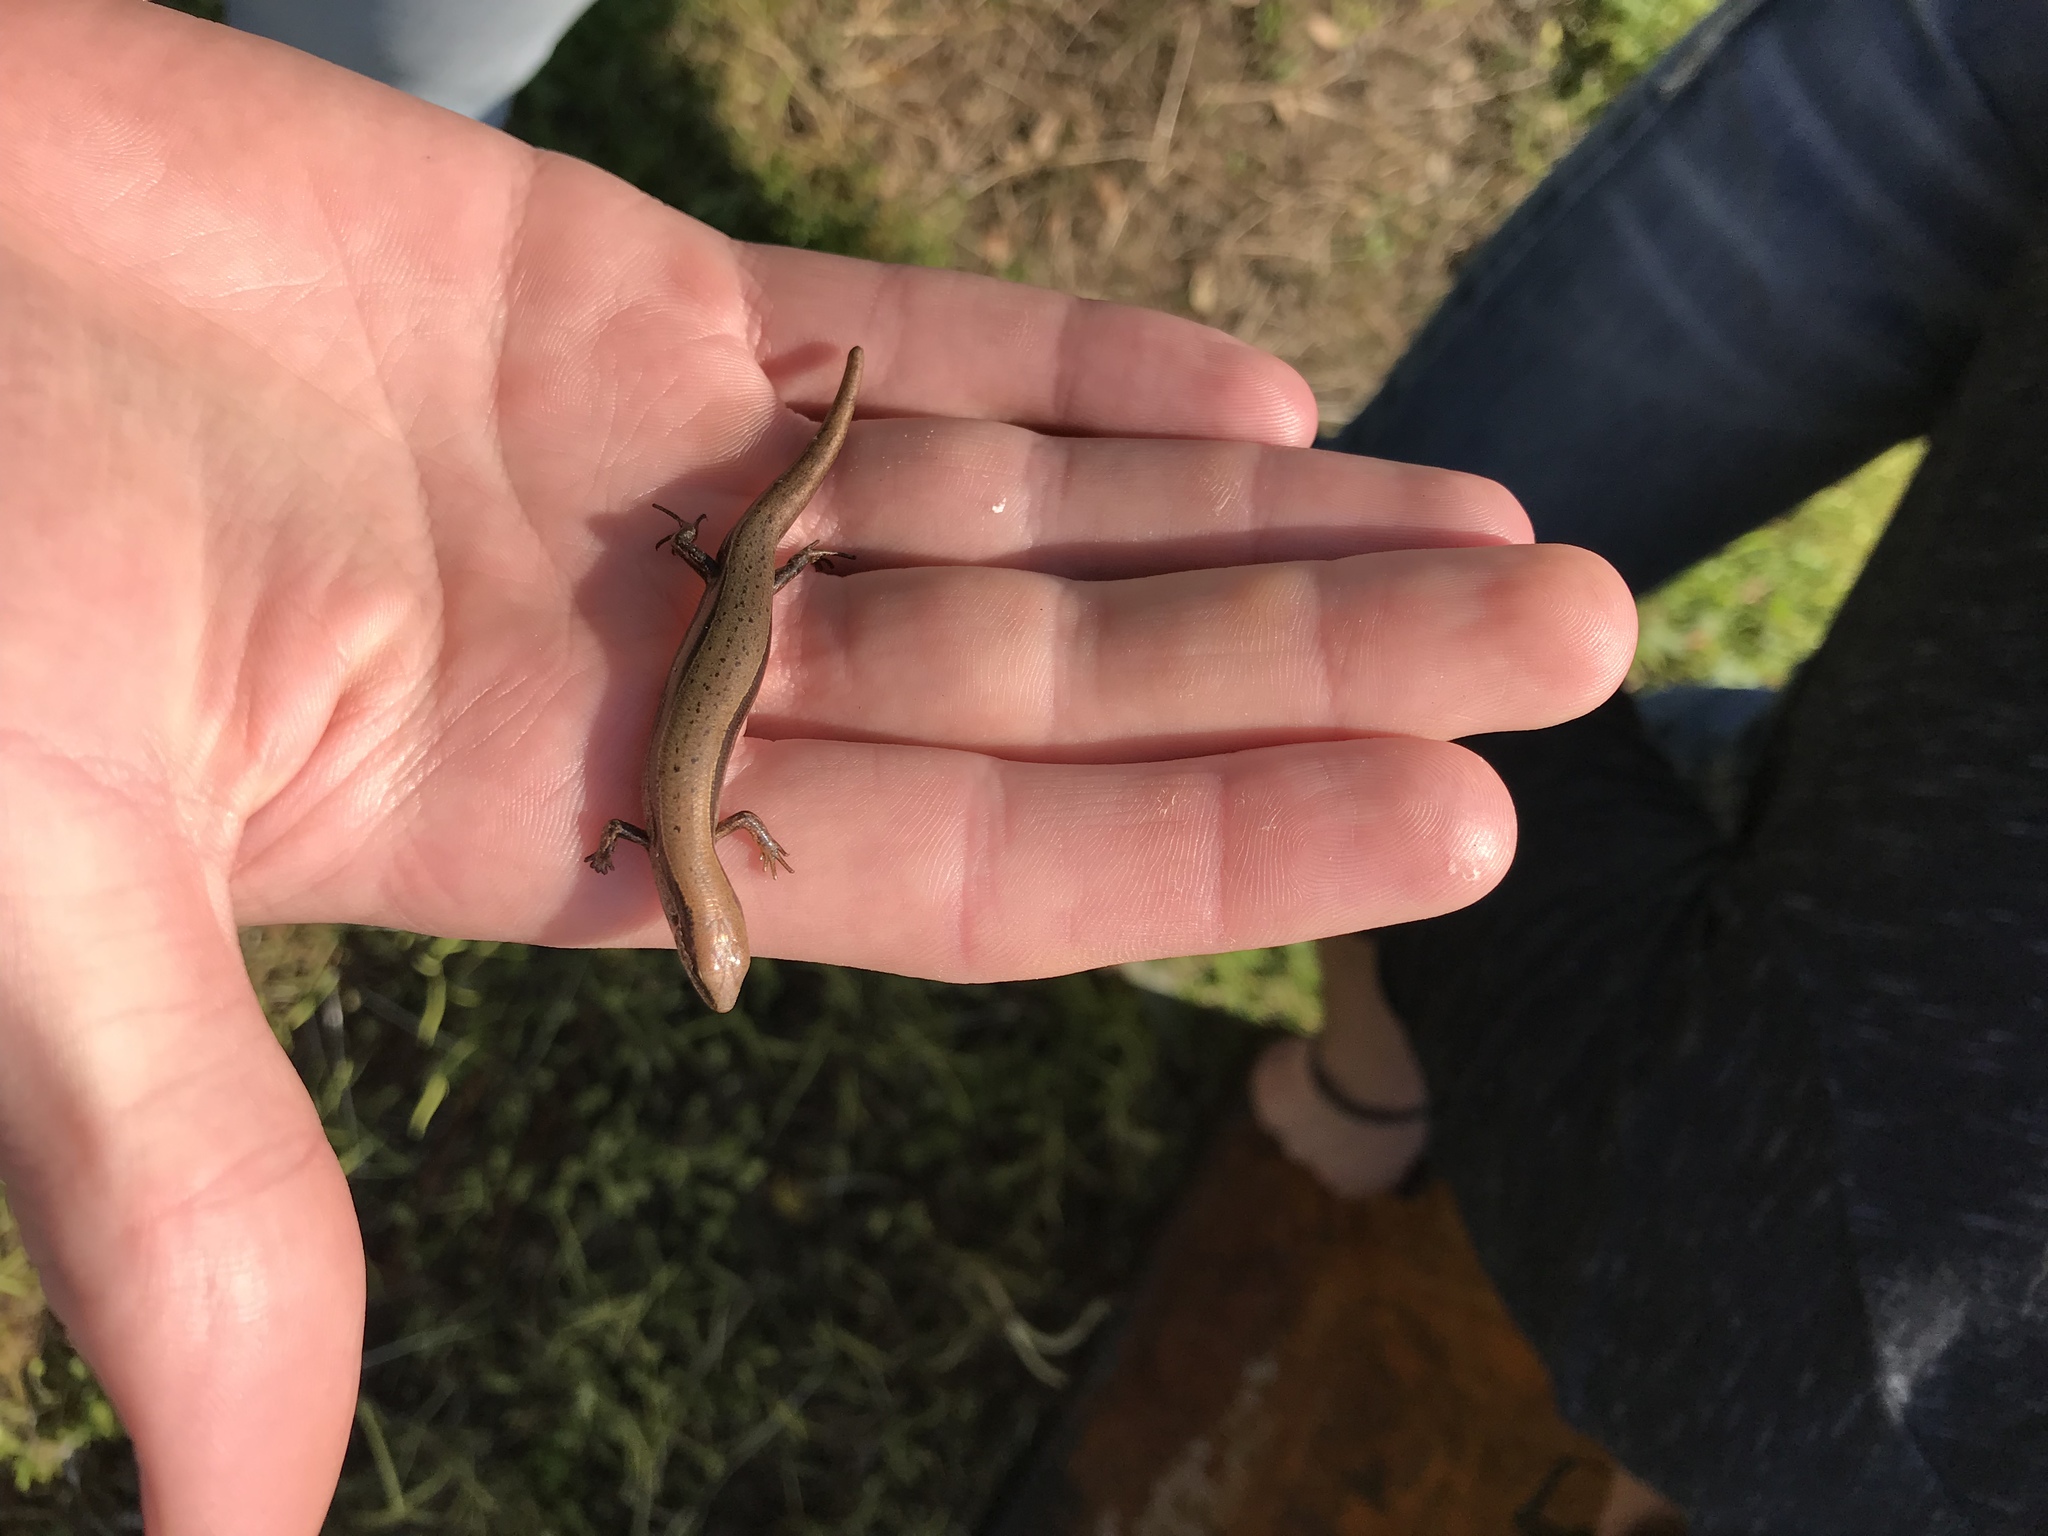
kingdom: Animalia
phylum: Chordata
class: Squamata
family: Scincidae
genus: Scincella
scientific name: Scincella lateralis
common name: Ground skink
